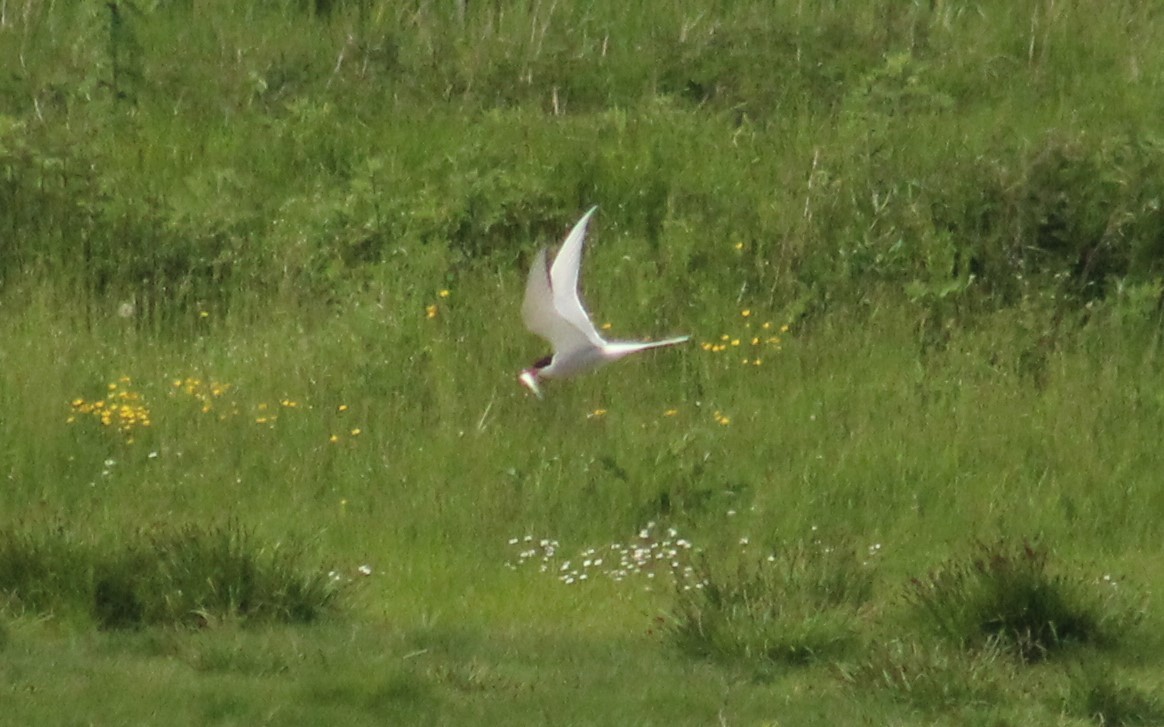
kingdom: Animalia
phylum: Chordata
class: Aves
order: Charadriiformes
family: Laridae
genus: Sterna
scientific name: Sterna hirundo
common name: Common tern
